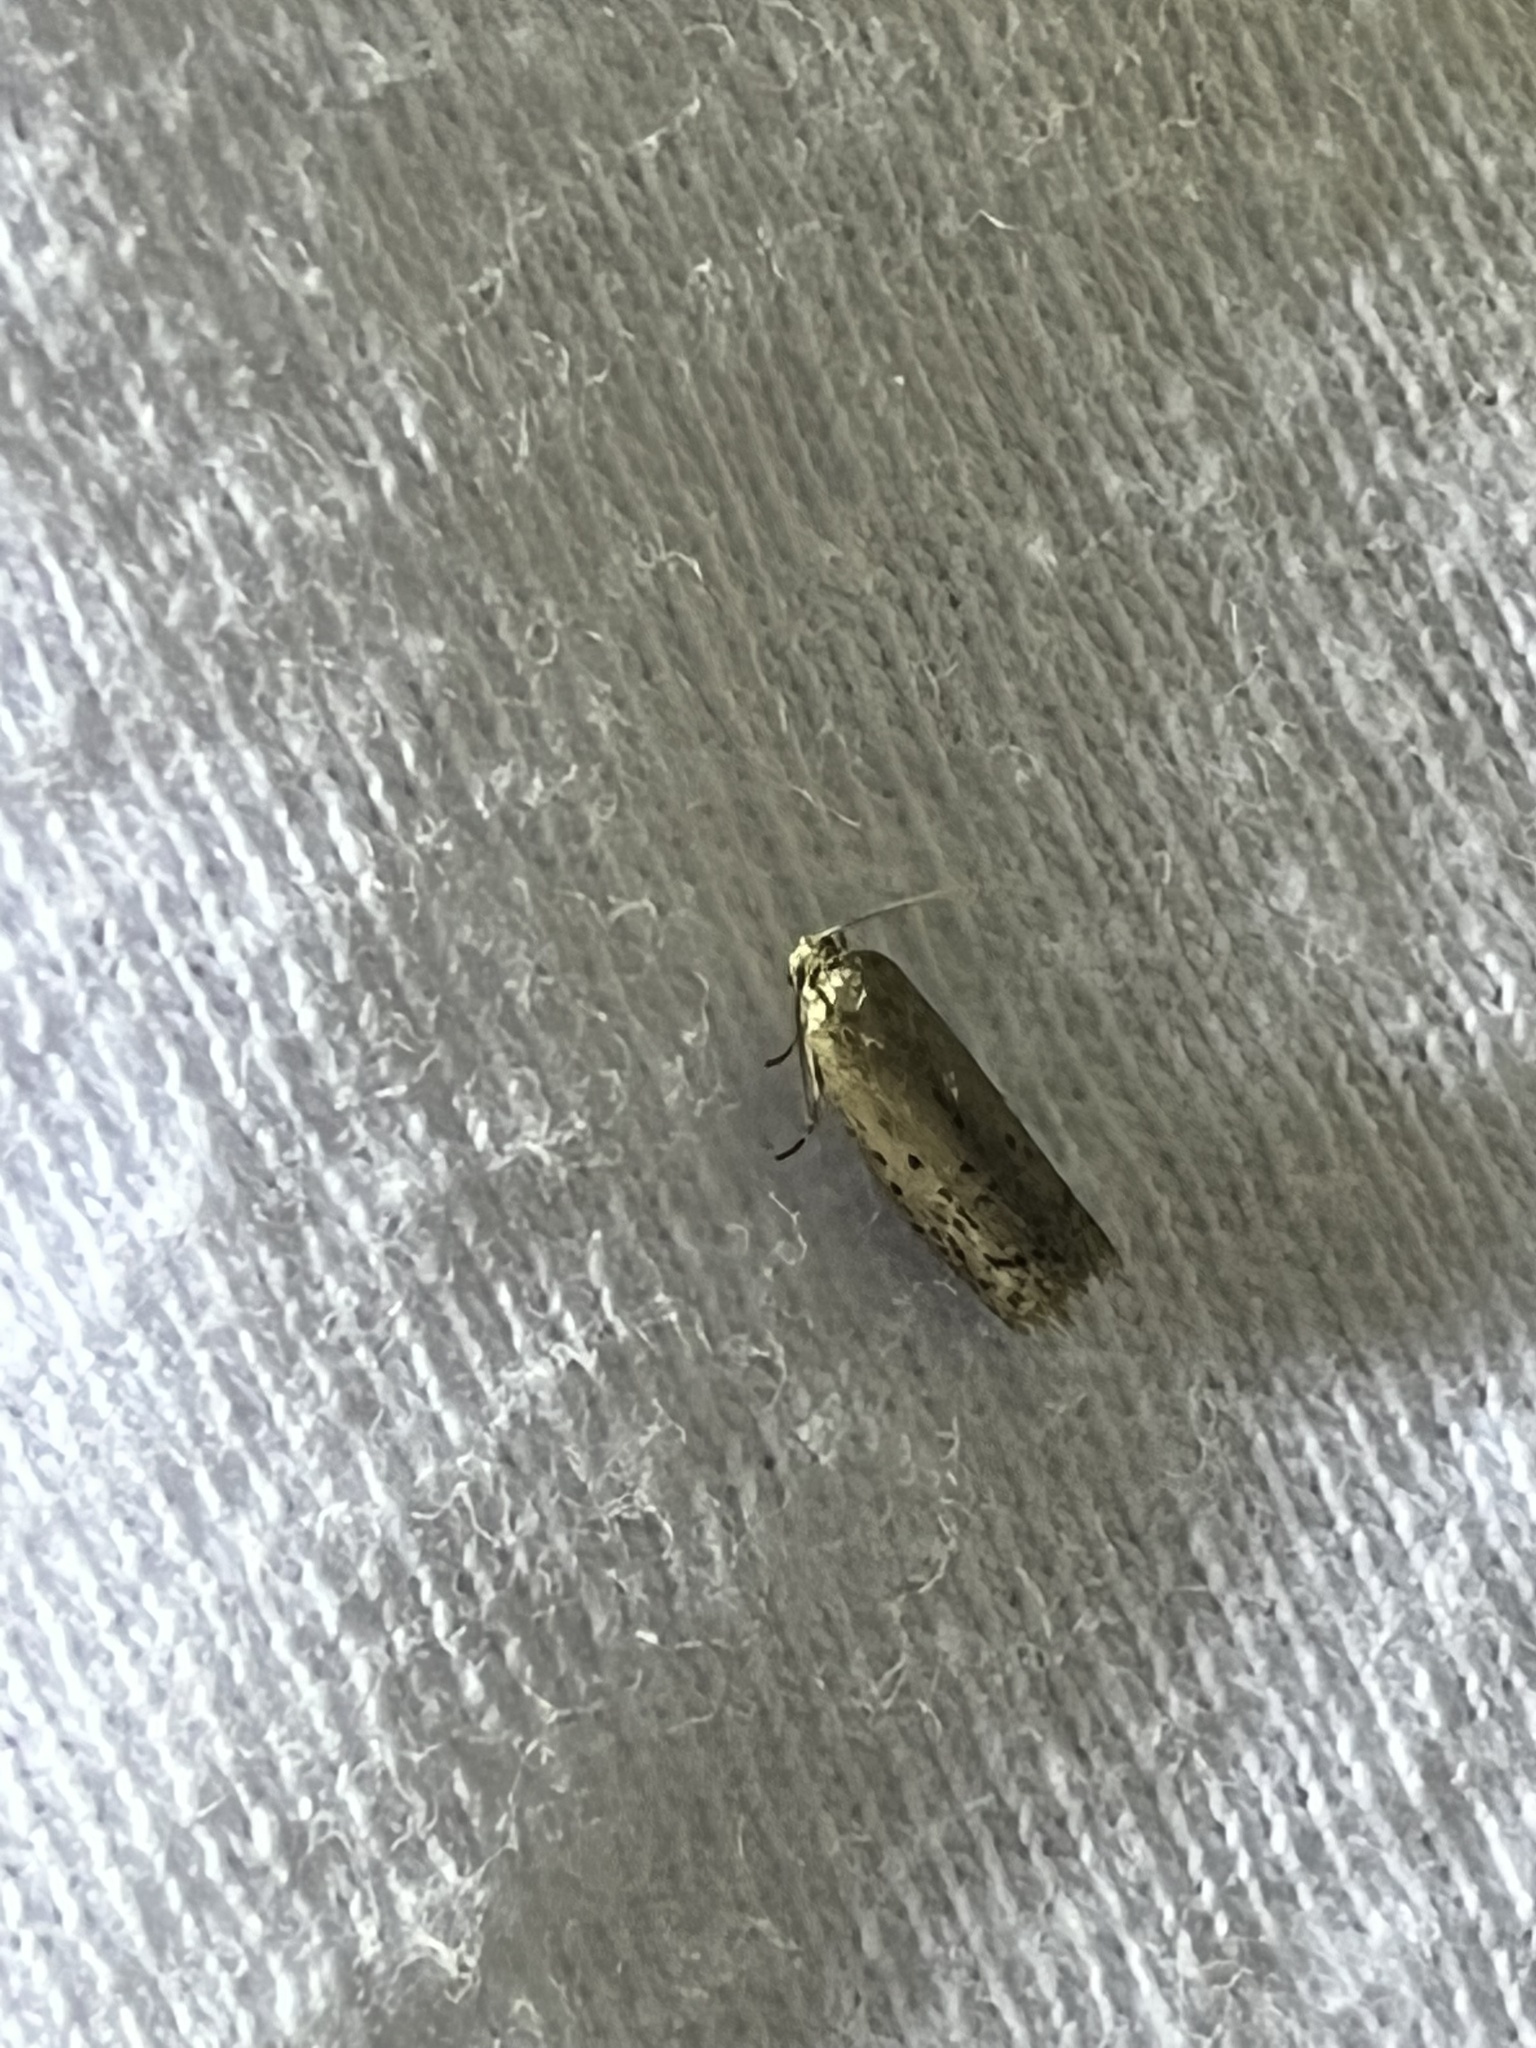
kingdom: Animalia
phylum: Arthropoda
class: Insecta
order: Lepidoptera
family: Galacticidae
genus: Homadaula
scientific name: Homadaula anisocentra
